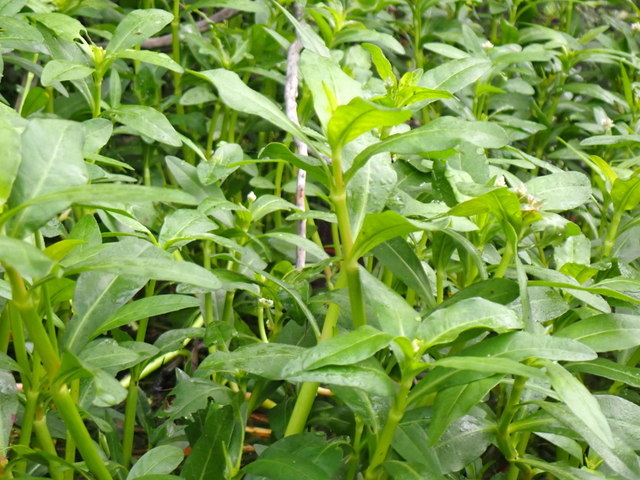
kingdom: Plantae
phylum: Tracheophyta
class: Magnoliopsida
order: Caryophyllales
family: Amaranthaceae
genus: Alternanthera
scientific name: Alternanthera philoxeroides
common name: Alligatorweed
